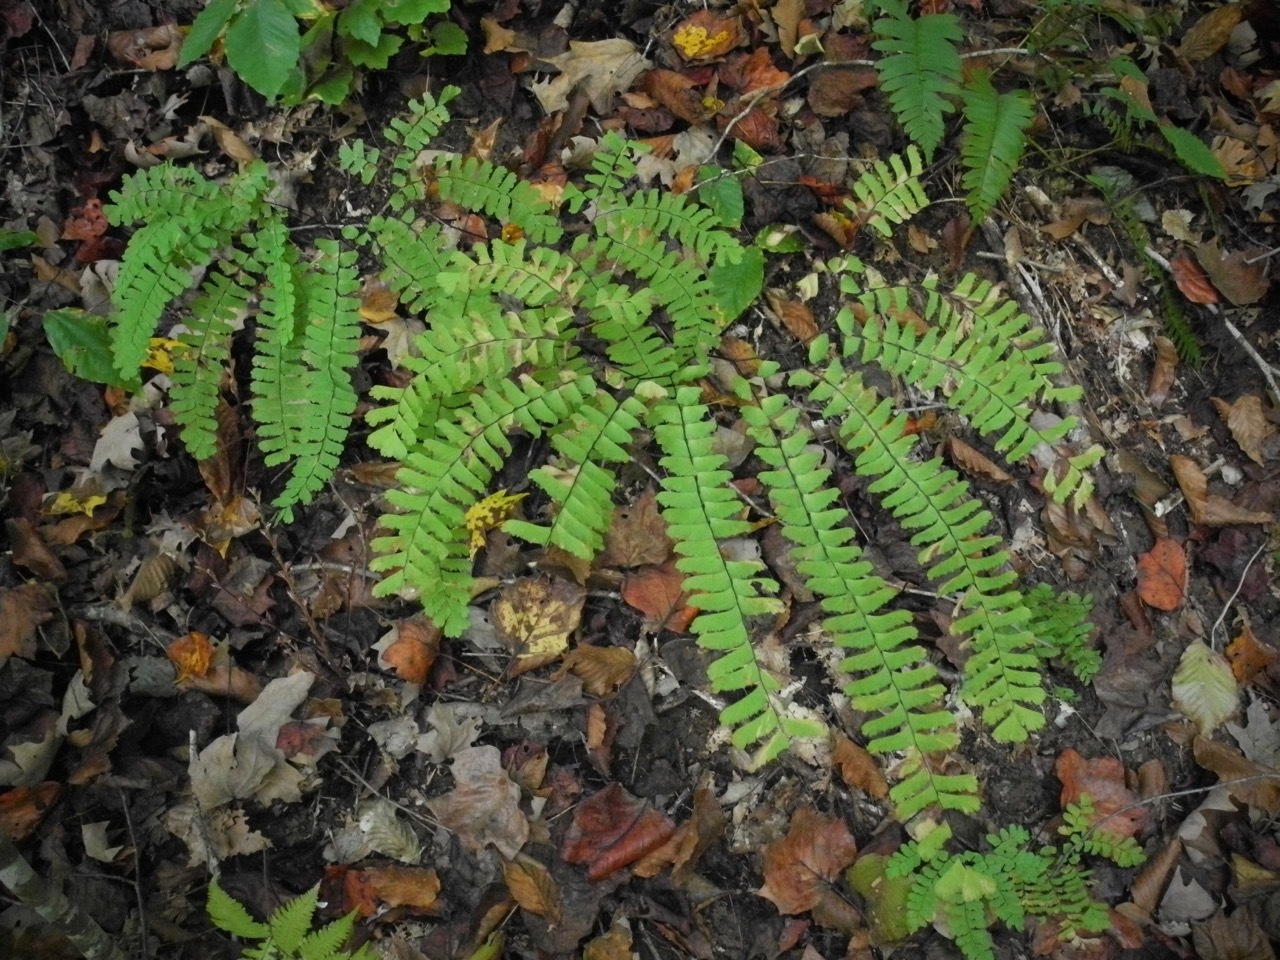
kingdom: Plantae
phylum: Tracheophyta
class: Polypodiopsida
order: Polypodiales
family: Pteridaceae
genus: Adiantum
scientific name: Adiantum pedatum
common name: Five-finger fern
